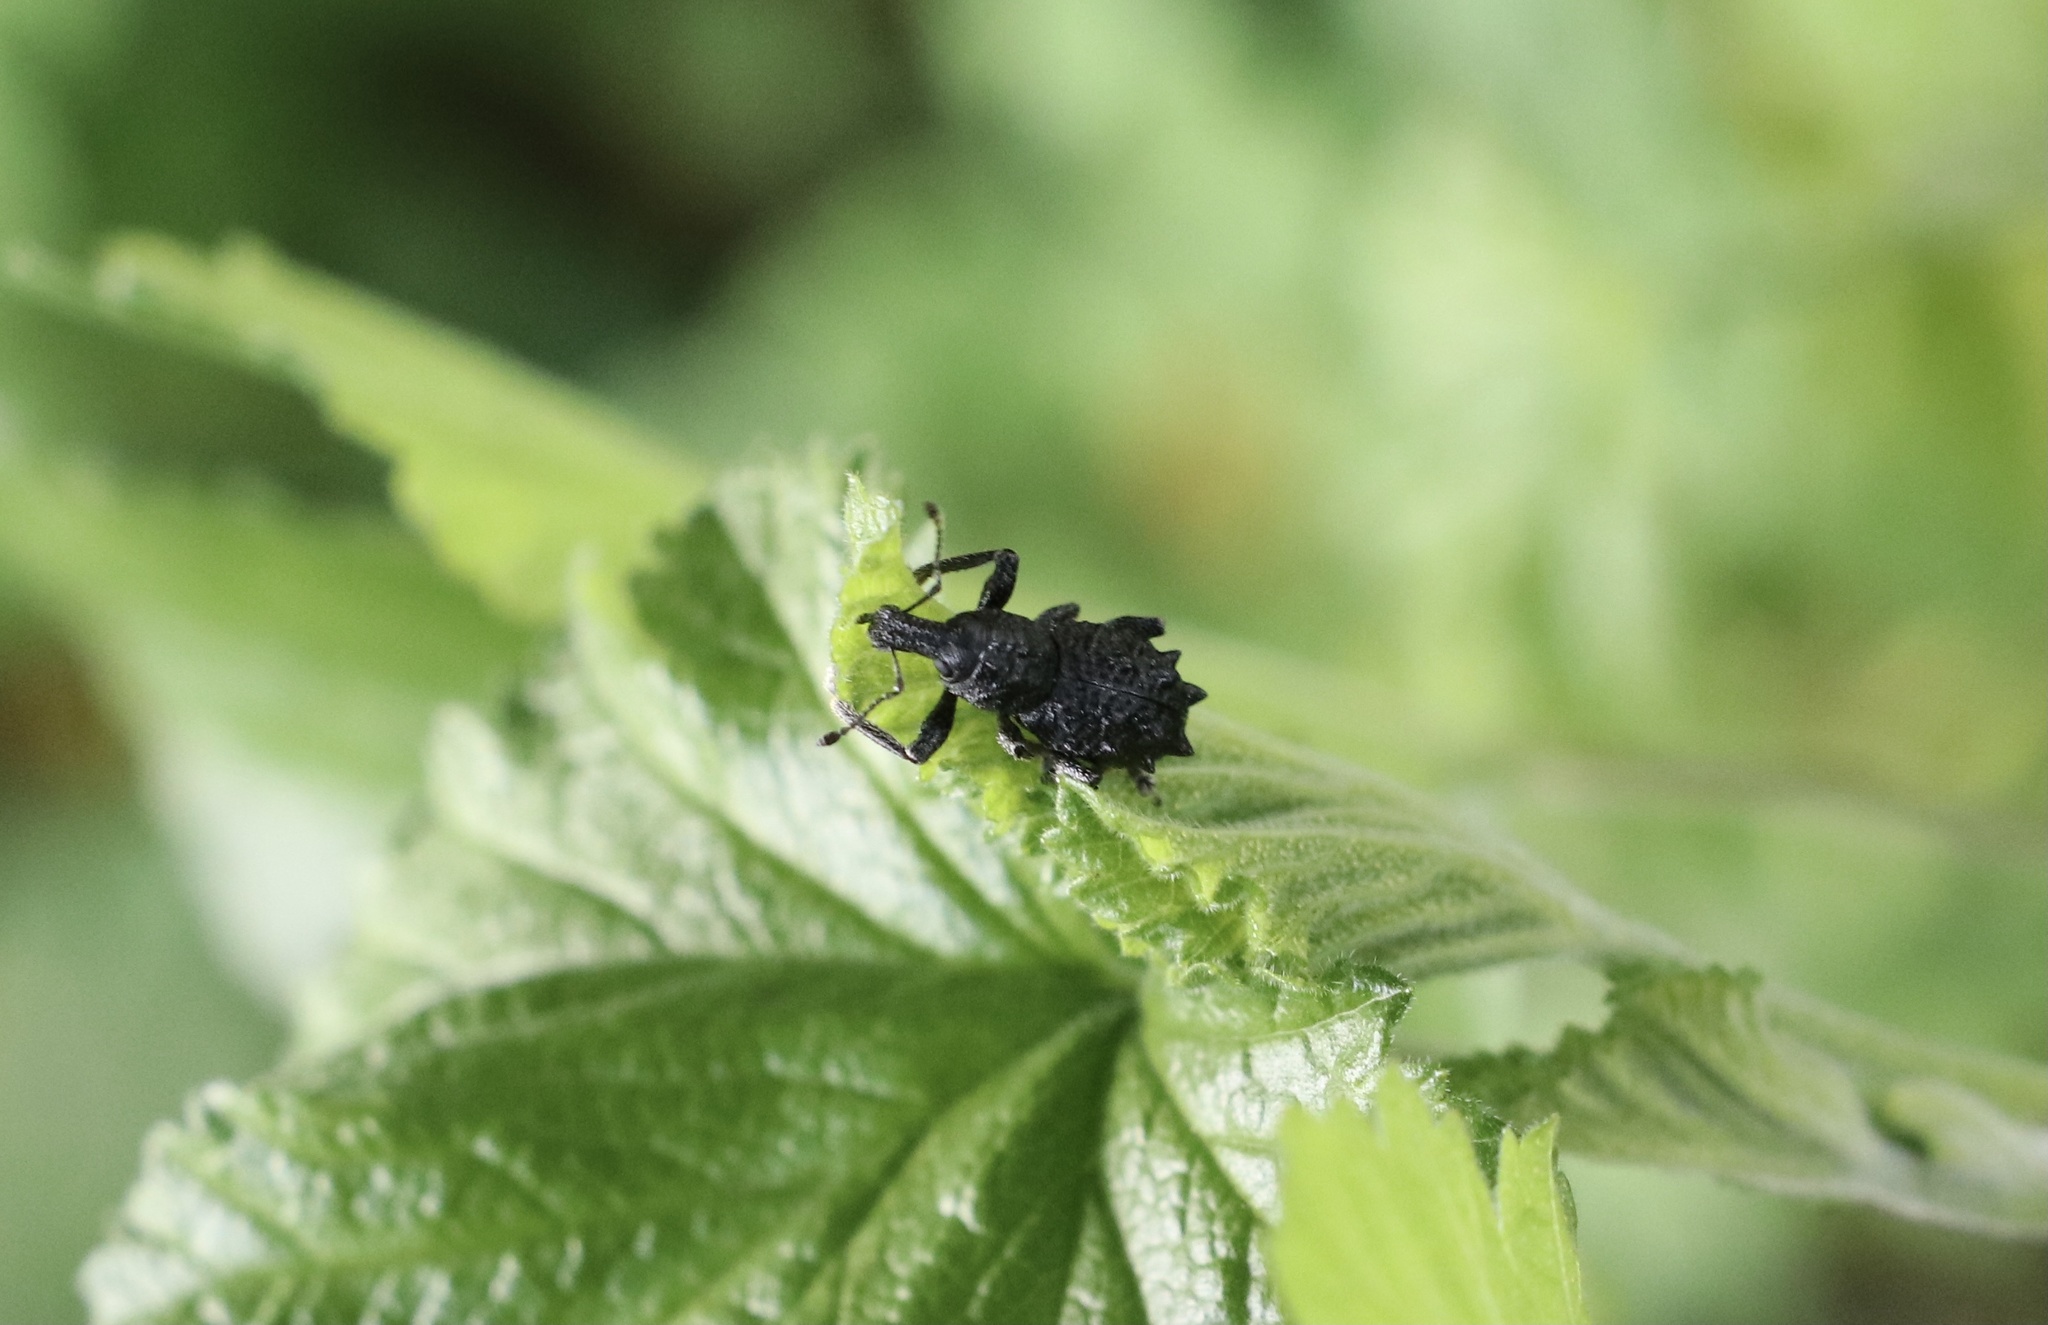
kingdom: Animalia
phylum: Arthropoda
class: Insecta
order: Coleoptera
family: Curculionidae
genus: Megalometis
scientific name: Megalometis spiniferus
